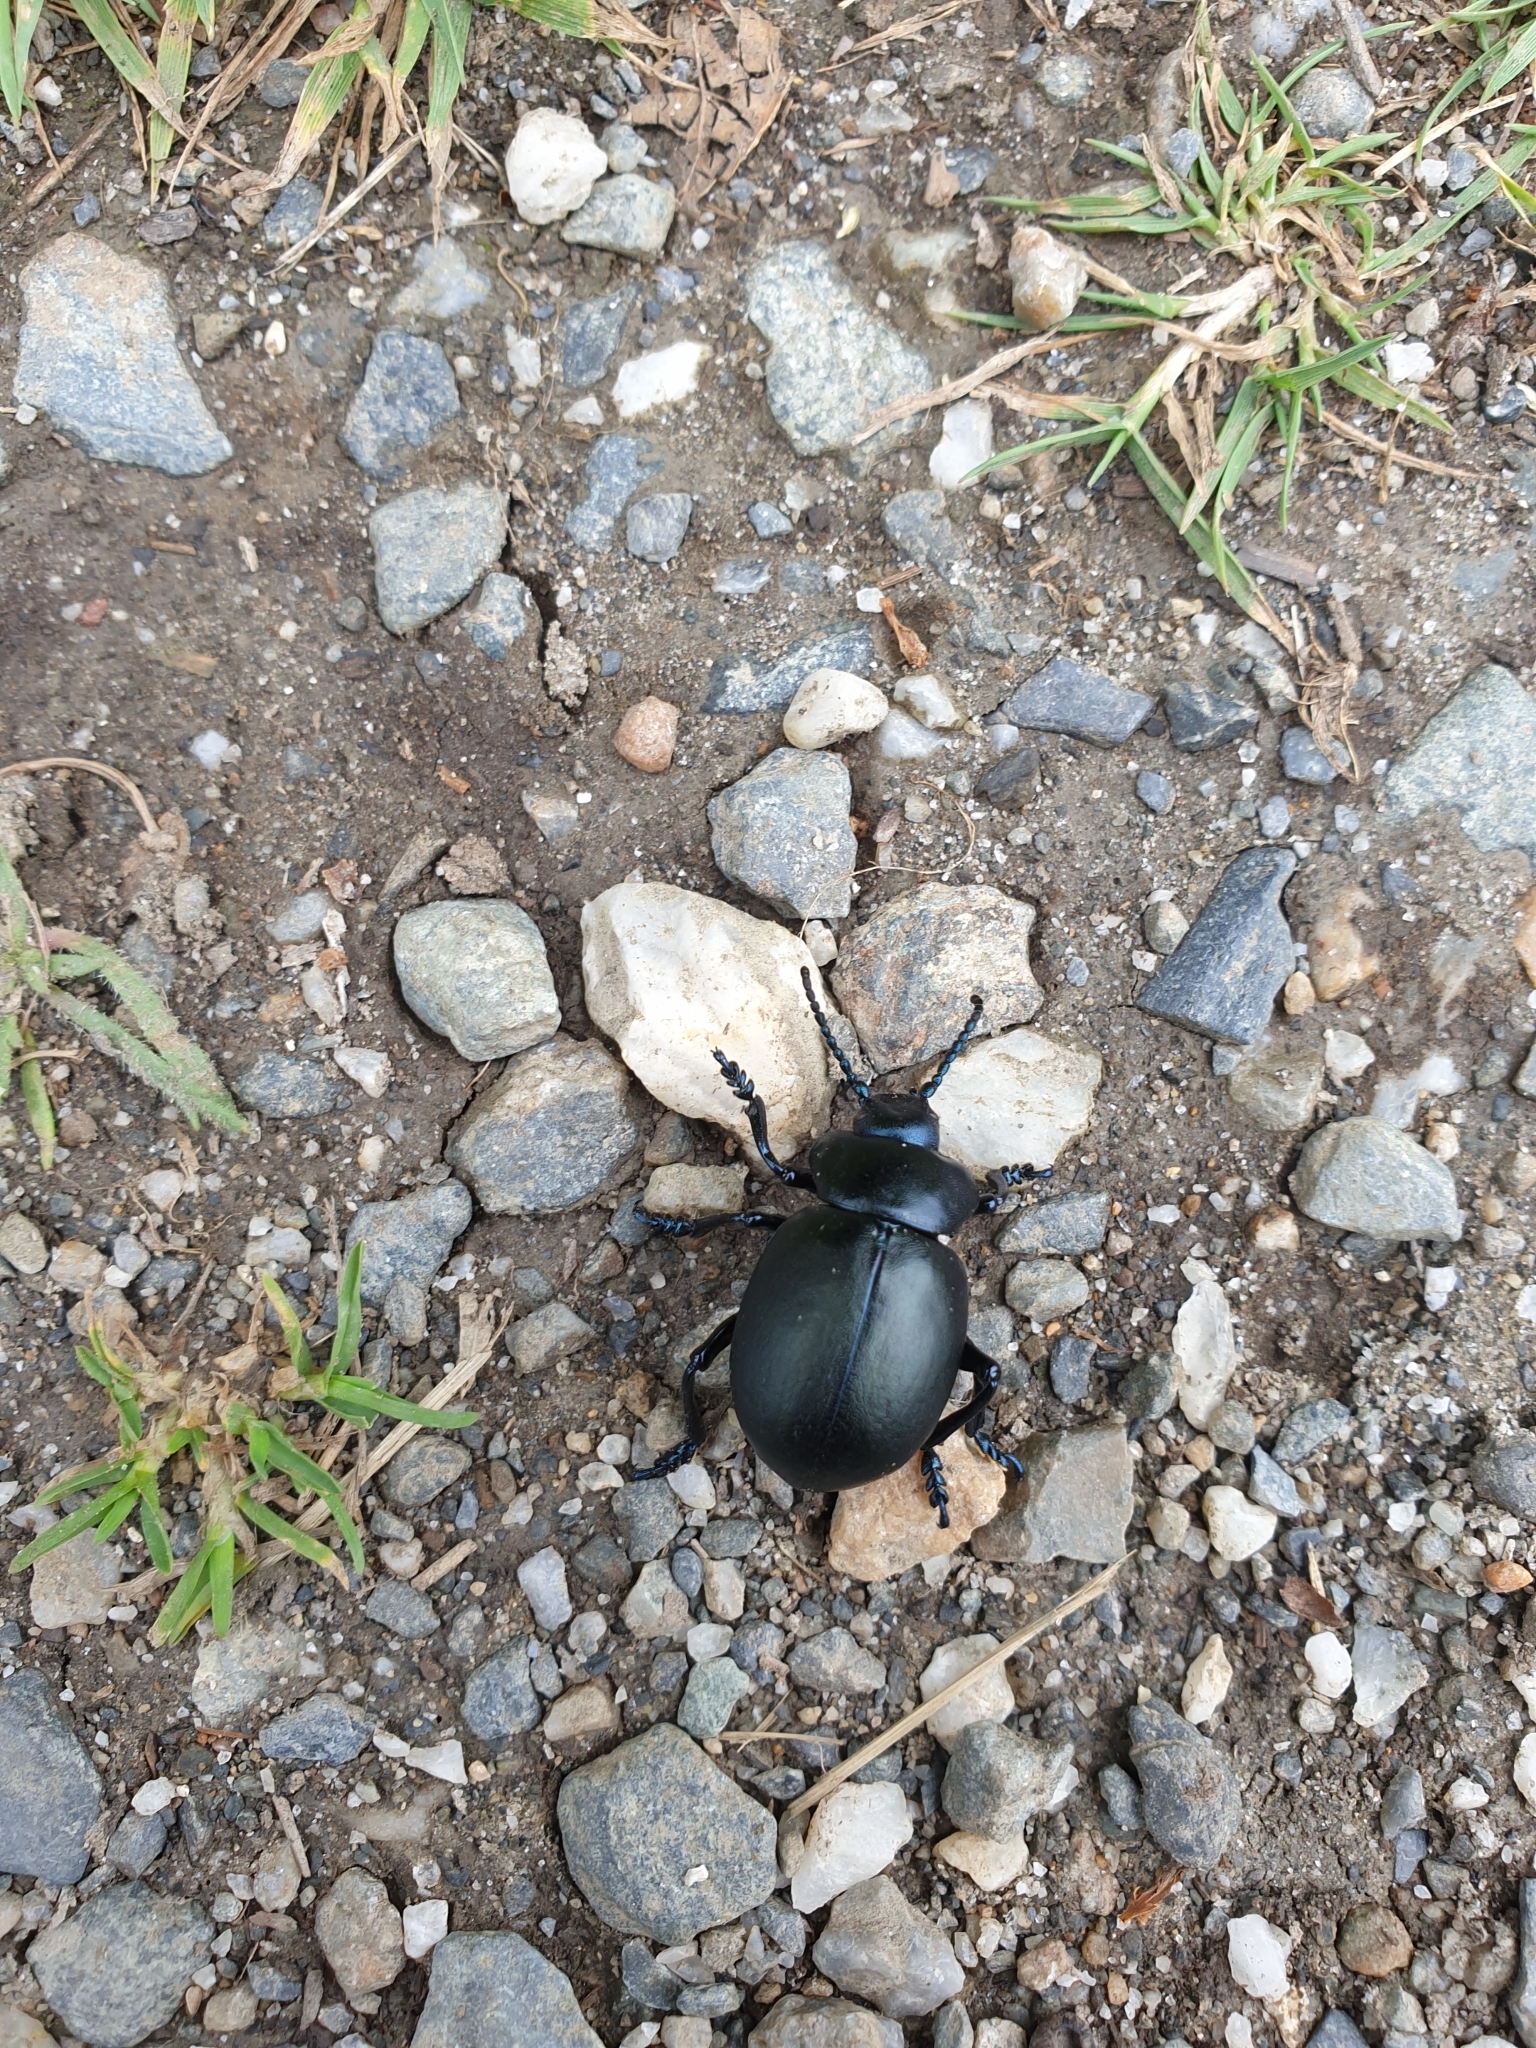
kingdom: Animalia
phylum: Arthropoda
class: Insecta
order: Coleoptera
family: Chrysomelidae
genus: Timarcha
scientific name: Timarcha tenebricosa
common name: Bloody-nosed beetle
